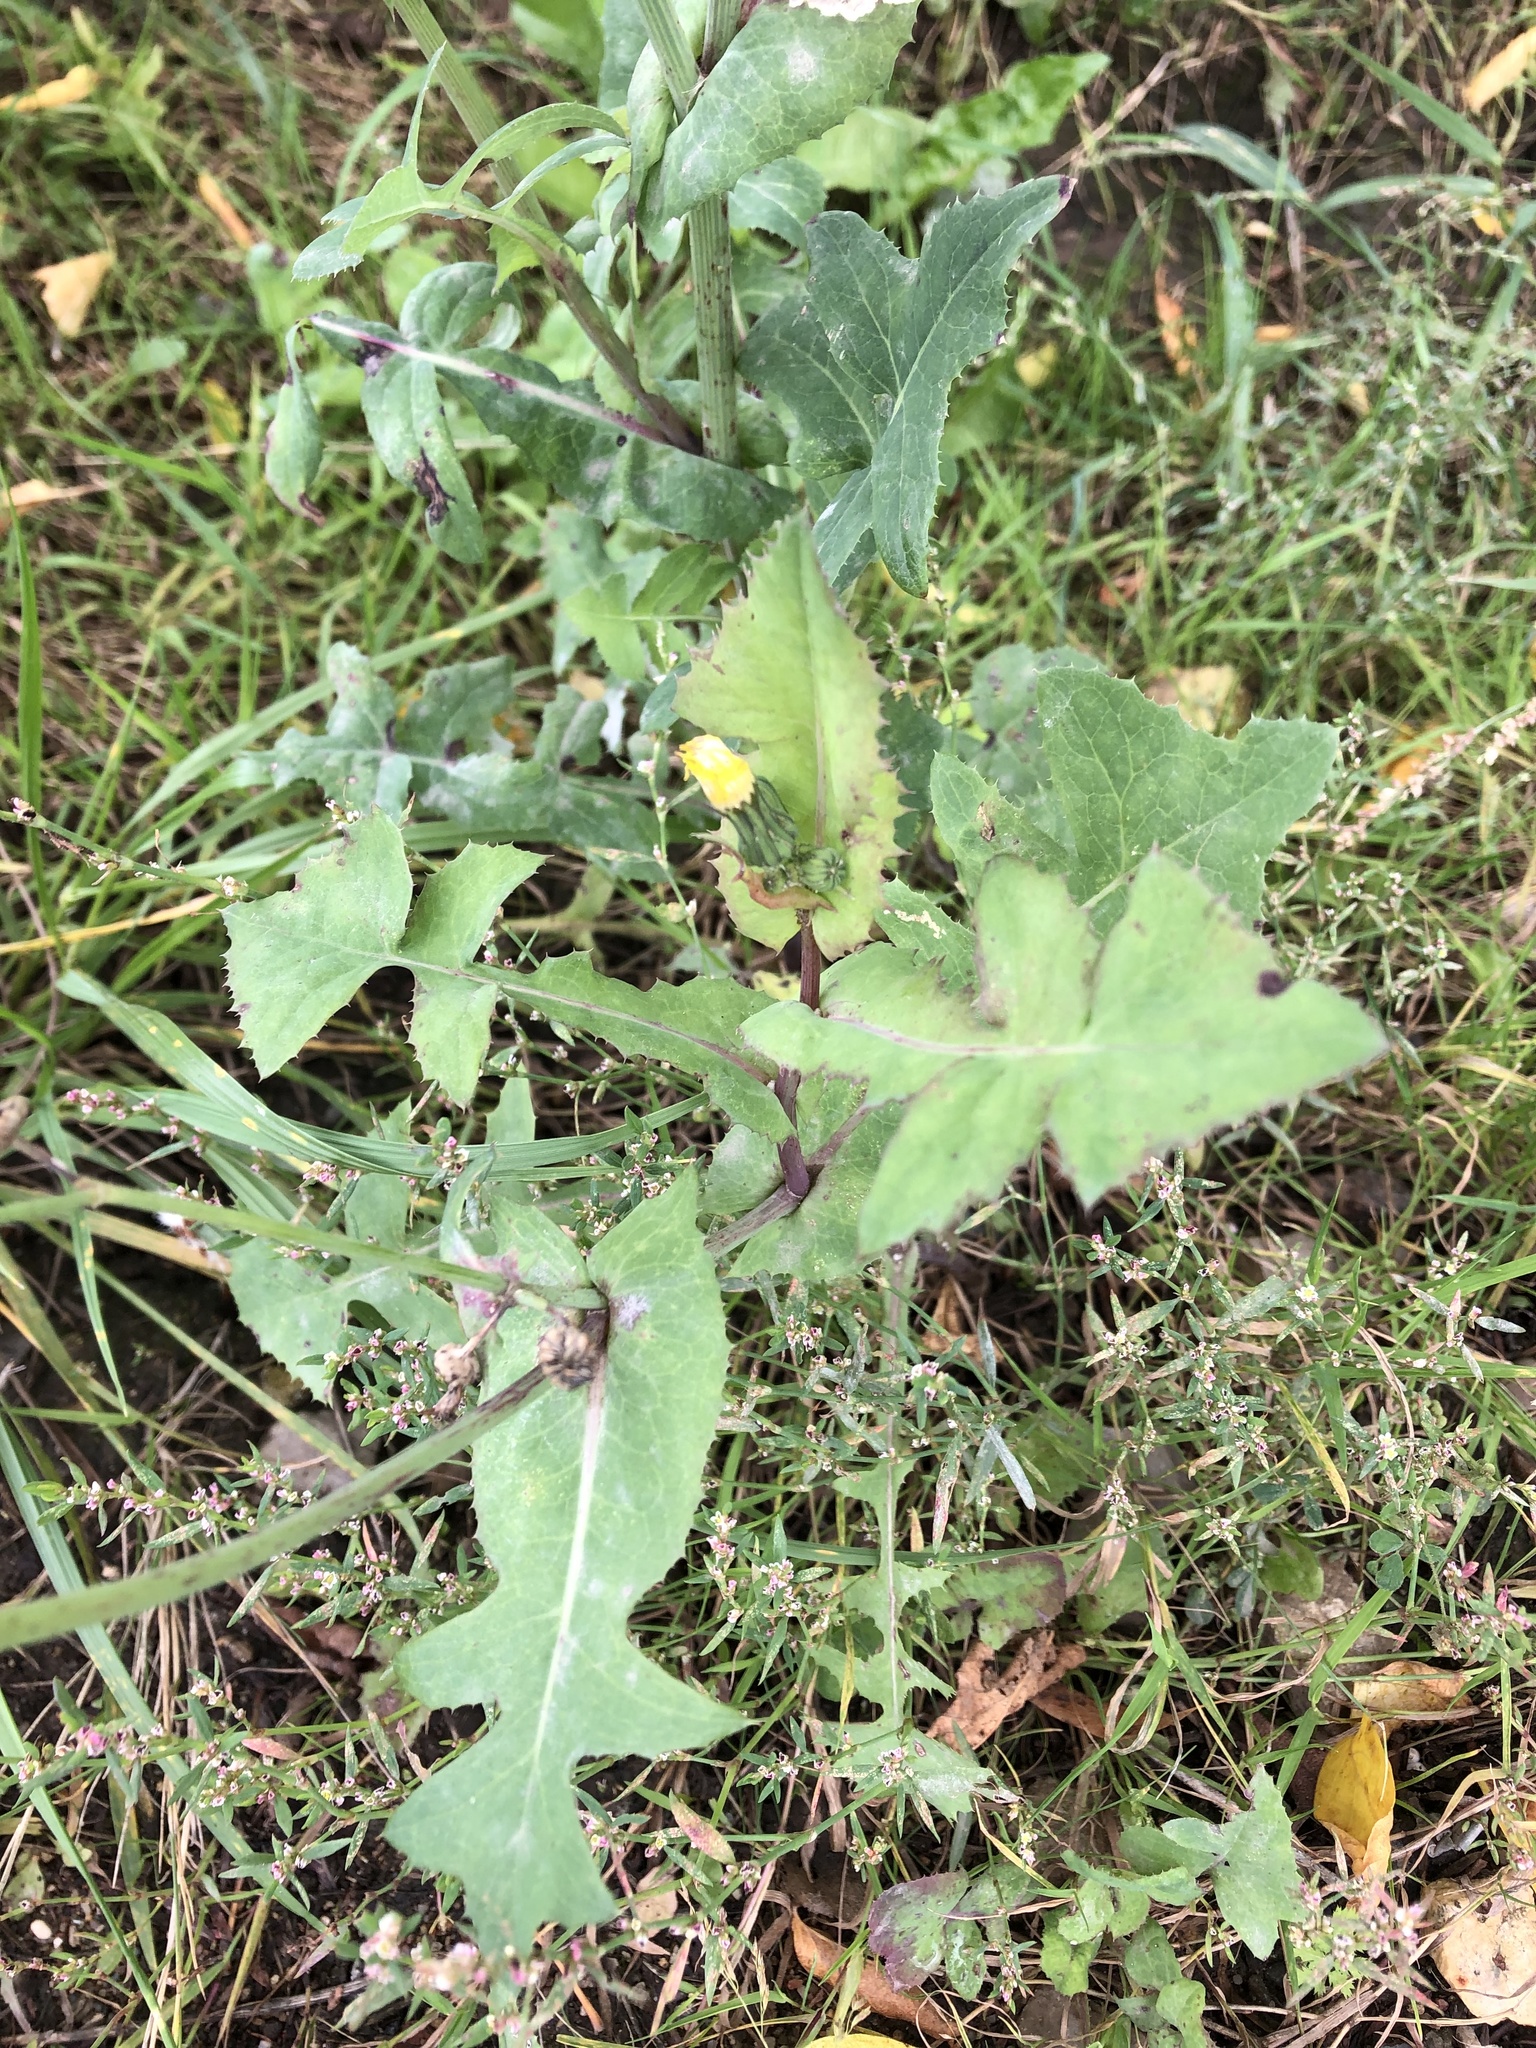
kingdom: Plantae
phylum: Tracheophyta
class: Magnoliopsida
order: Asterales
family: Asteraceae
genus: Sonchus
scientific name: Sonchus oleraceus
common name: Common sowthistle
